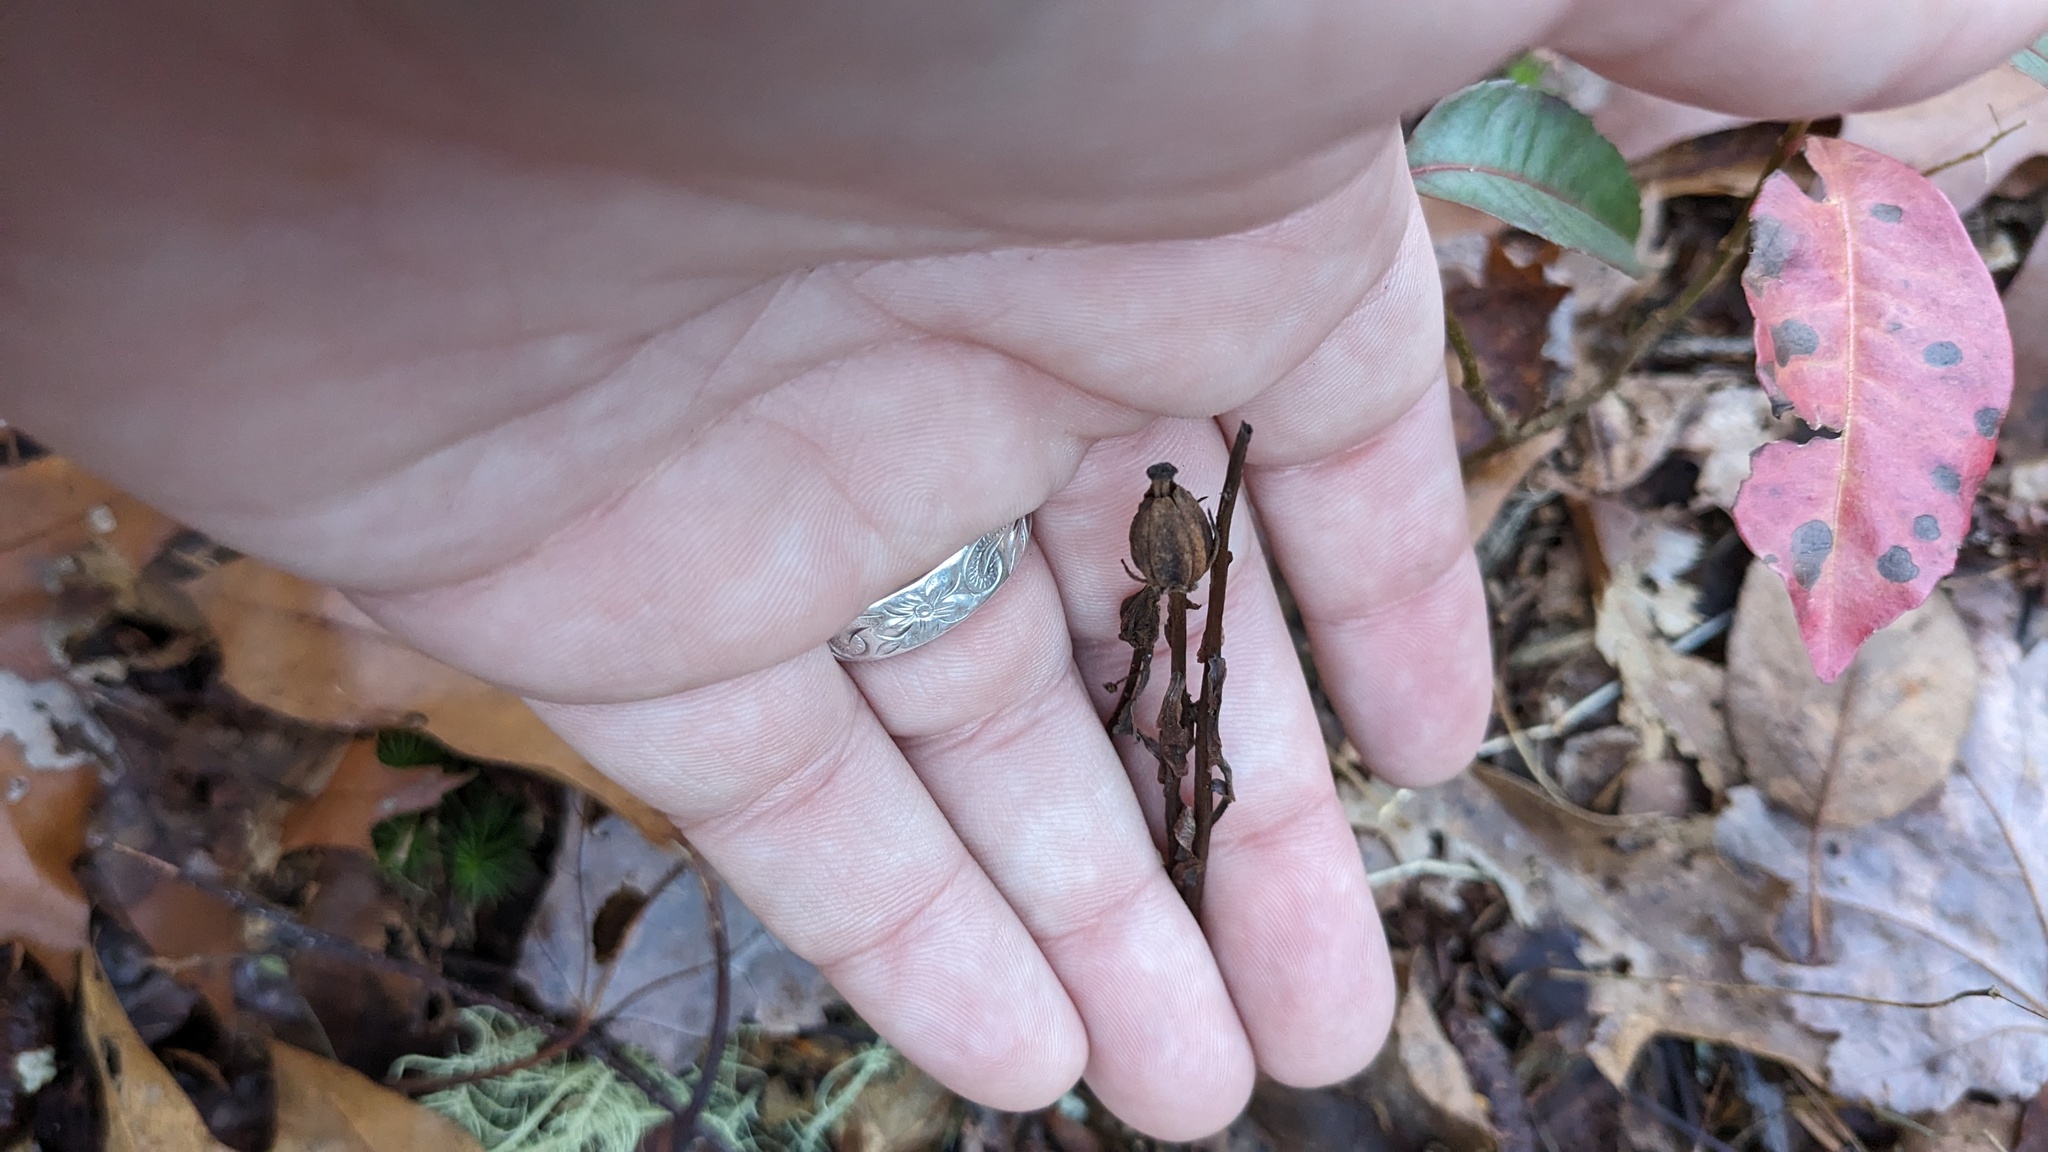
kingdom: Plantae
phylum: Tracheophyta
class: Magnoliopsida
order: Ericales
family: Ericaceae
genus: Monotropa
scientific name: Monotropa uniflora
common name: Convulsion root
